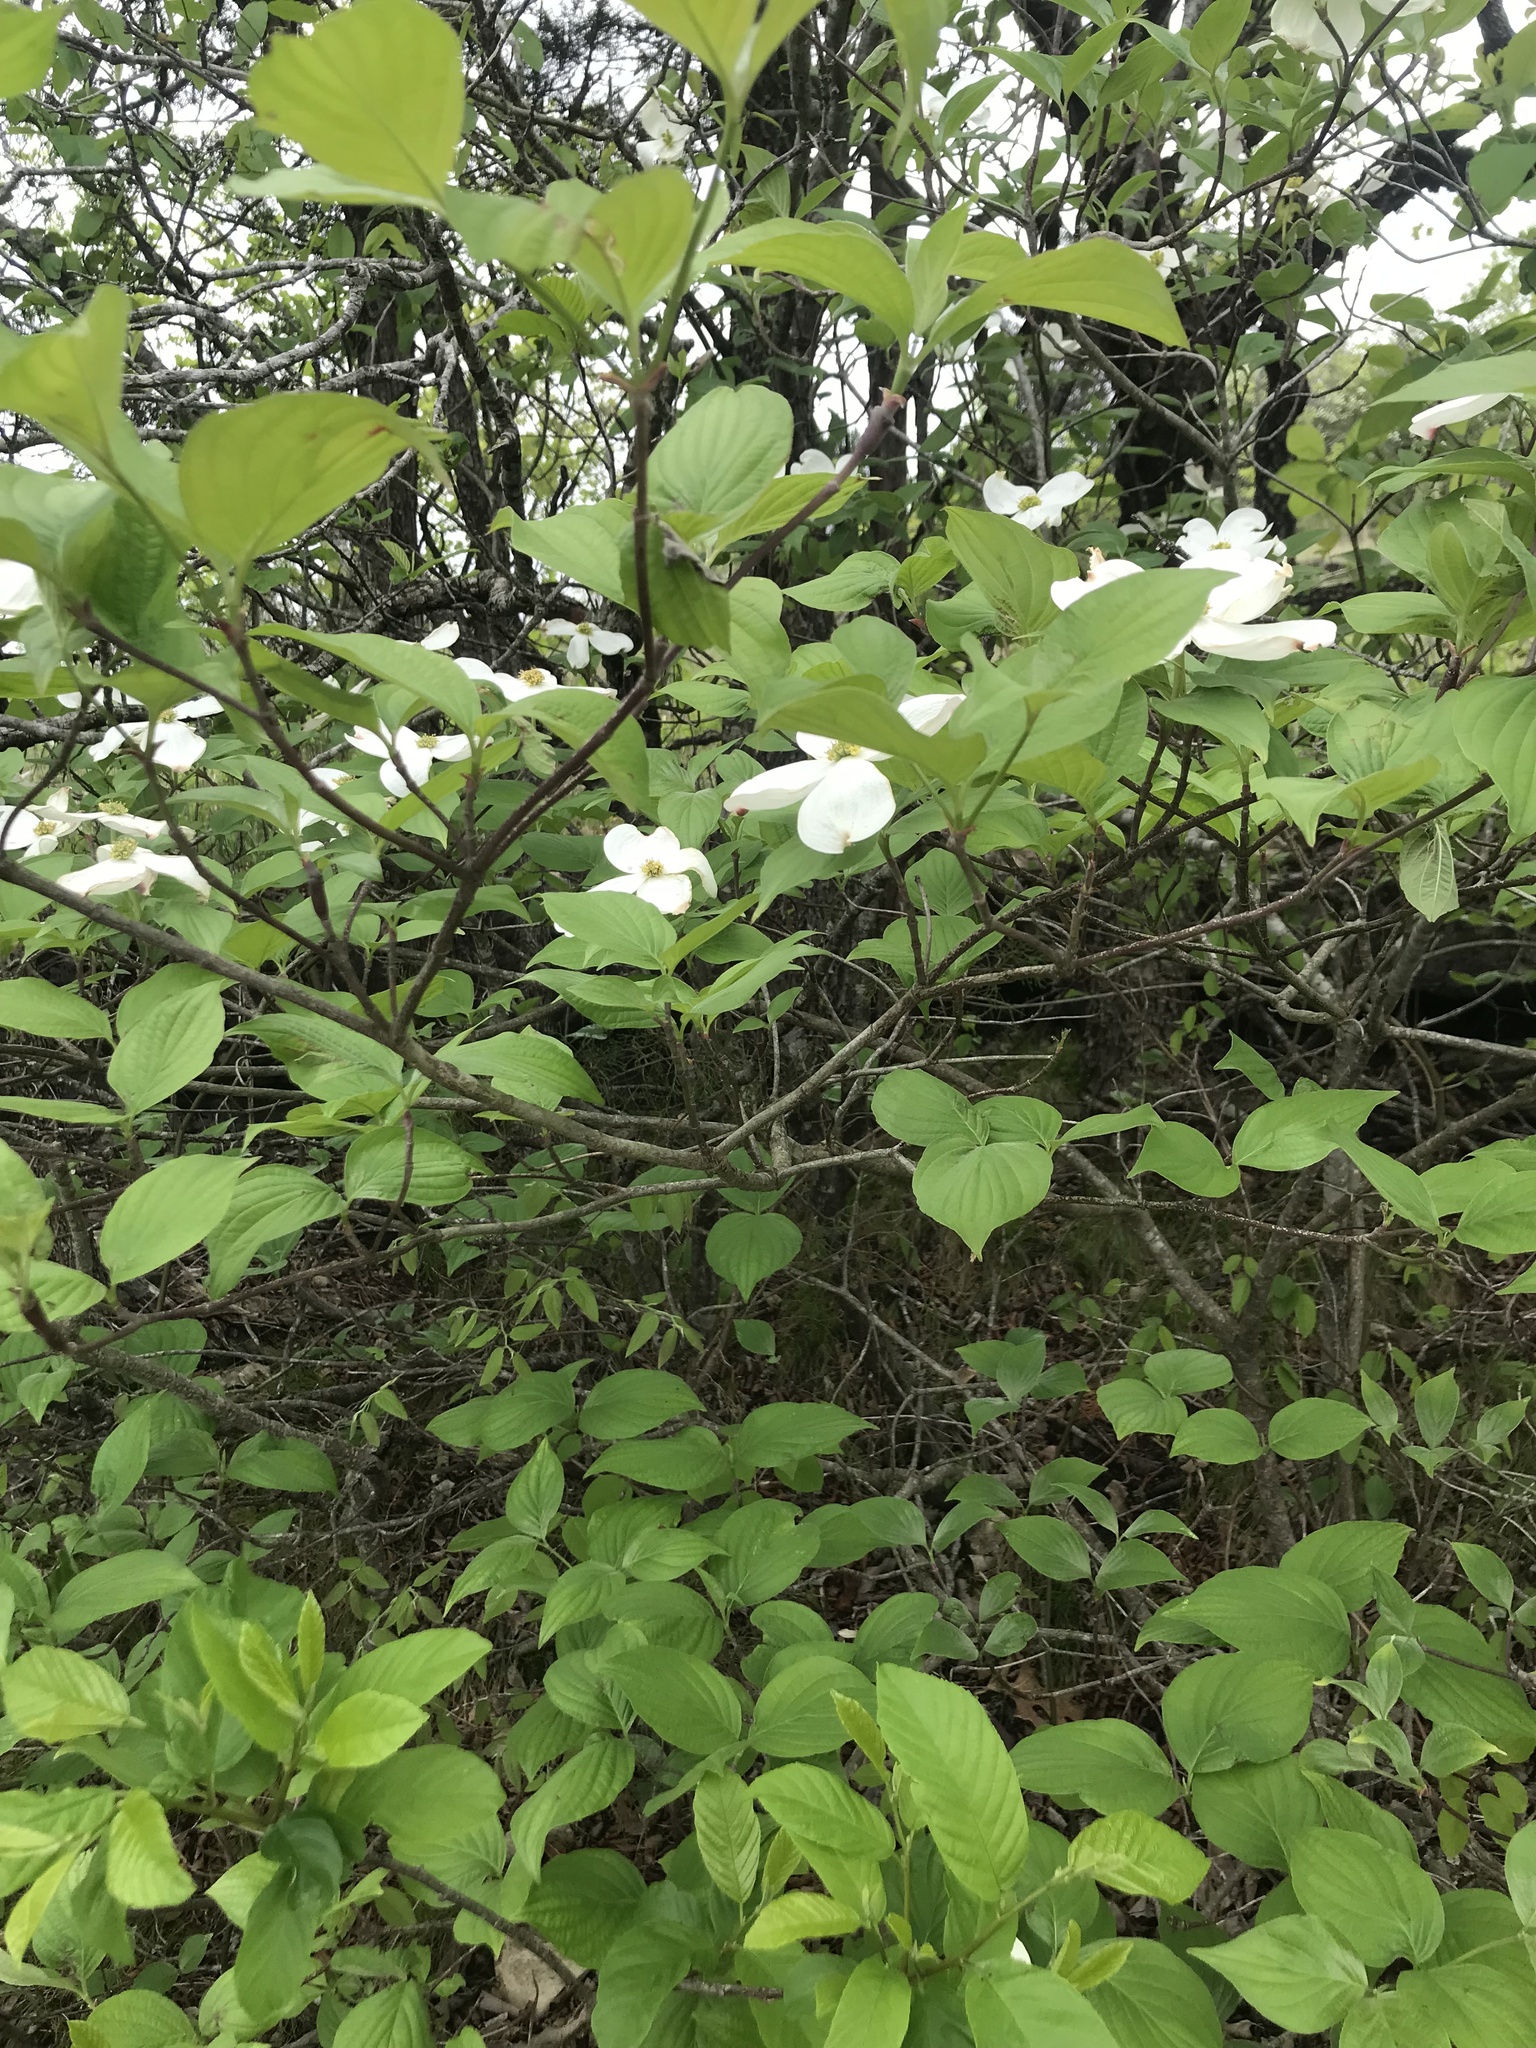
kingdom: Plantae
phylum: Tracheophyta
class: Magnoliopsida
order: Cornales
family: Cornaceae
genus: Cornus
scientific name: Cornus florida
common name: Flowering dogwood
